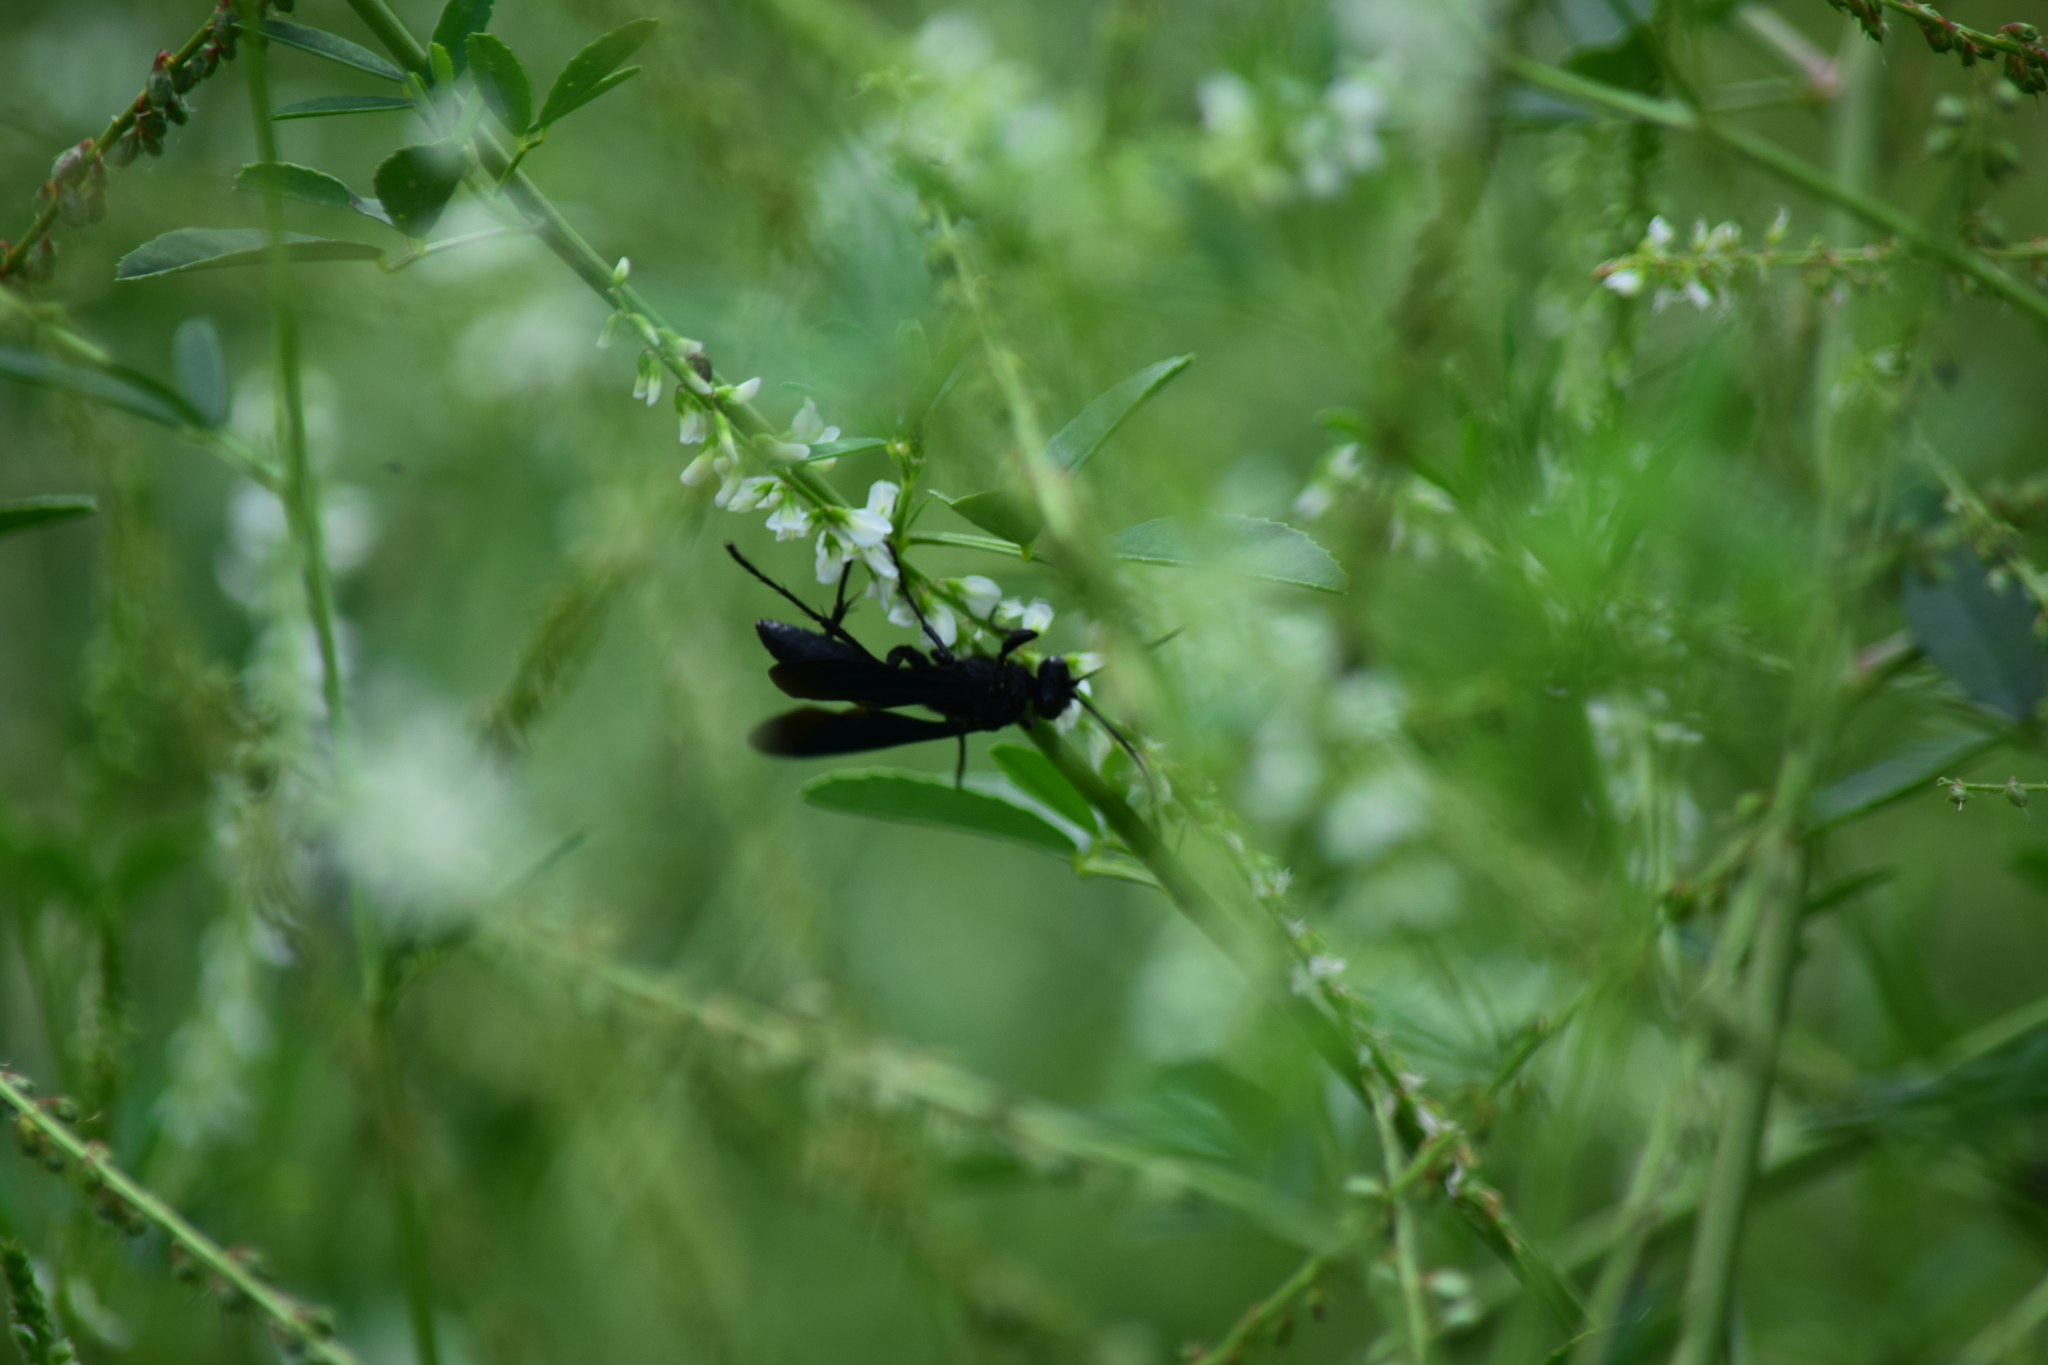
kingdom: Animalia
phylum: Arthropoda
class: Insecta
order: Hymenoptera
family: Sphecidae
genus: Sphex
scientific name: Sphex pensylvanicus
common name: Great black digger wasp
